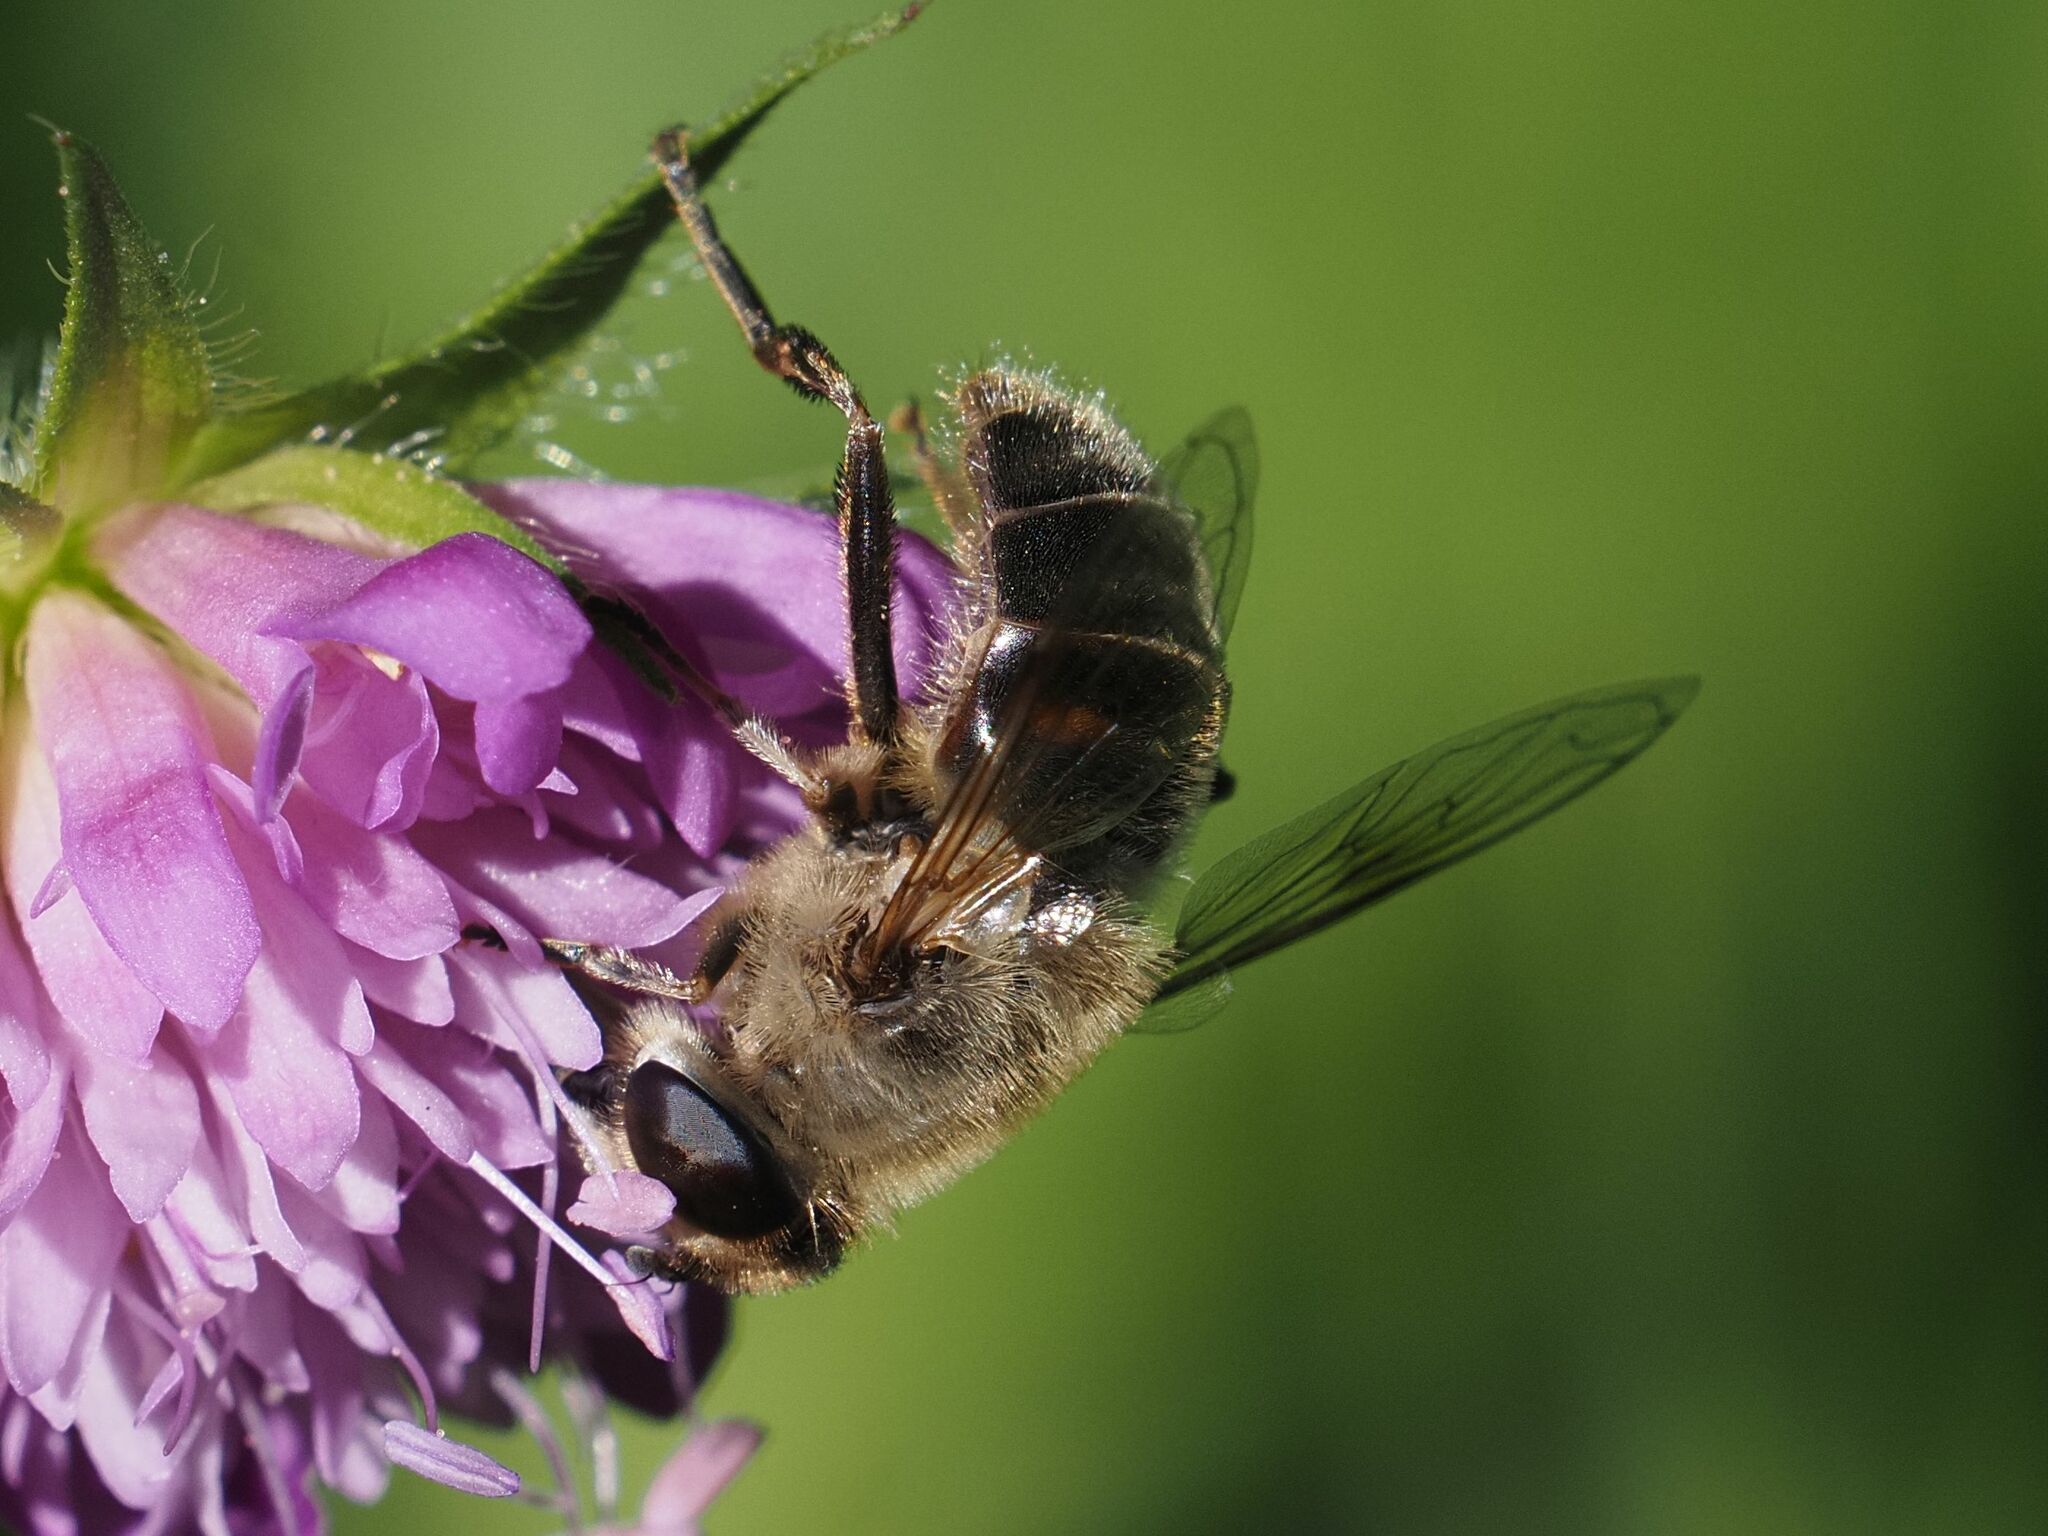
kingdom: Animalia
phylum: Arthropoda
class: Insecta
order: Diptera
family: Syrphidae
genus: Eristalis
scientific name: Eristalis tenax
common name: Drone fly
